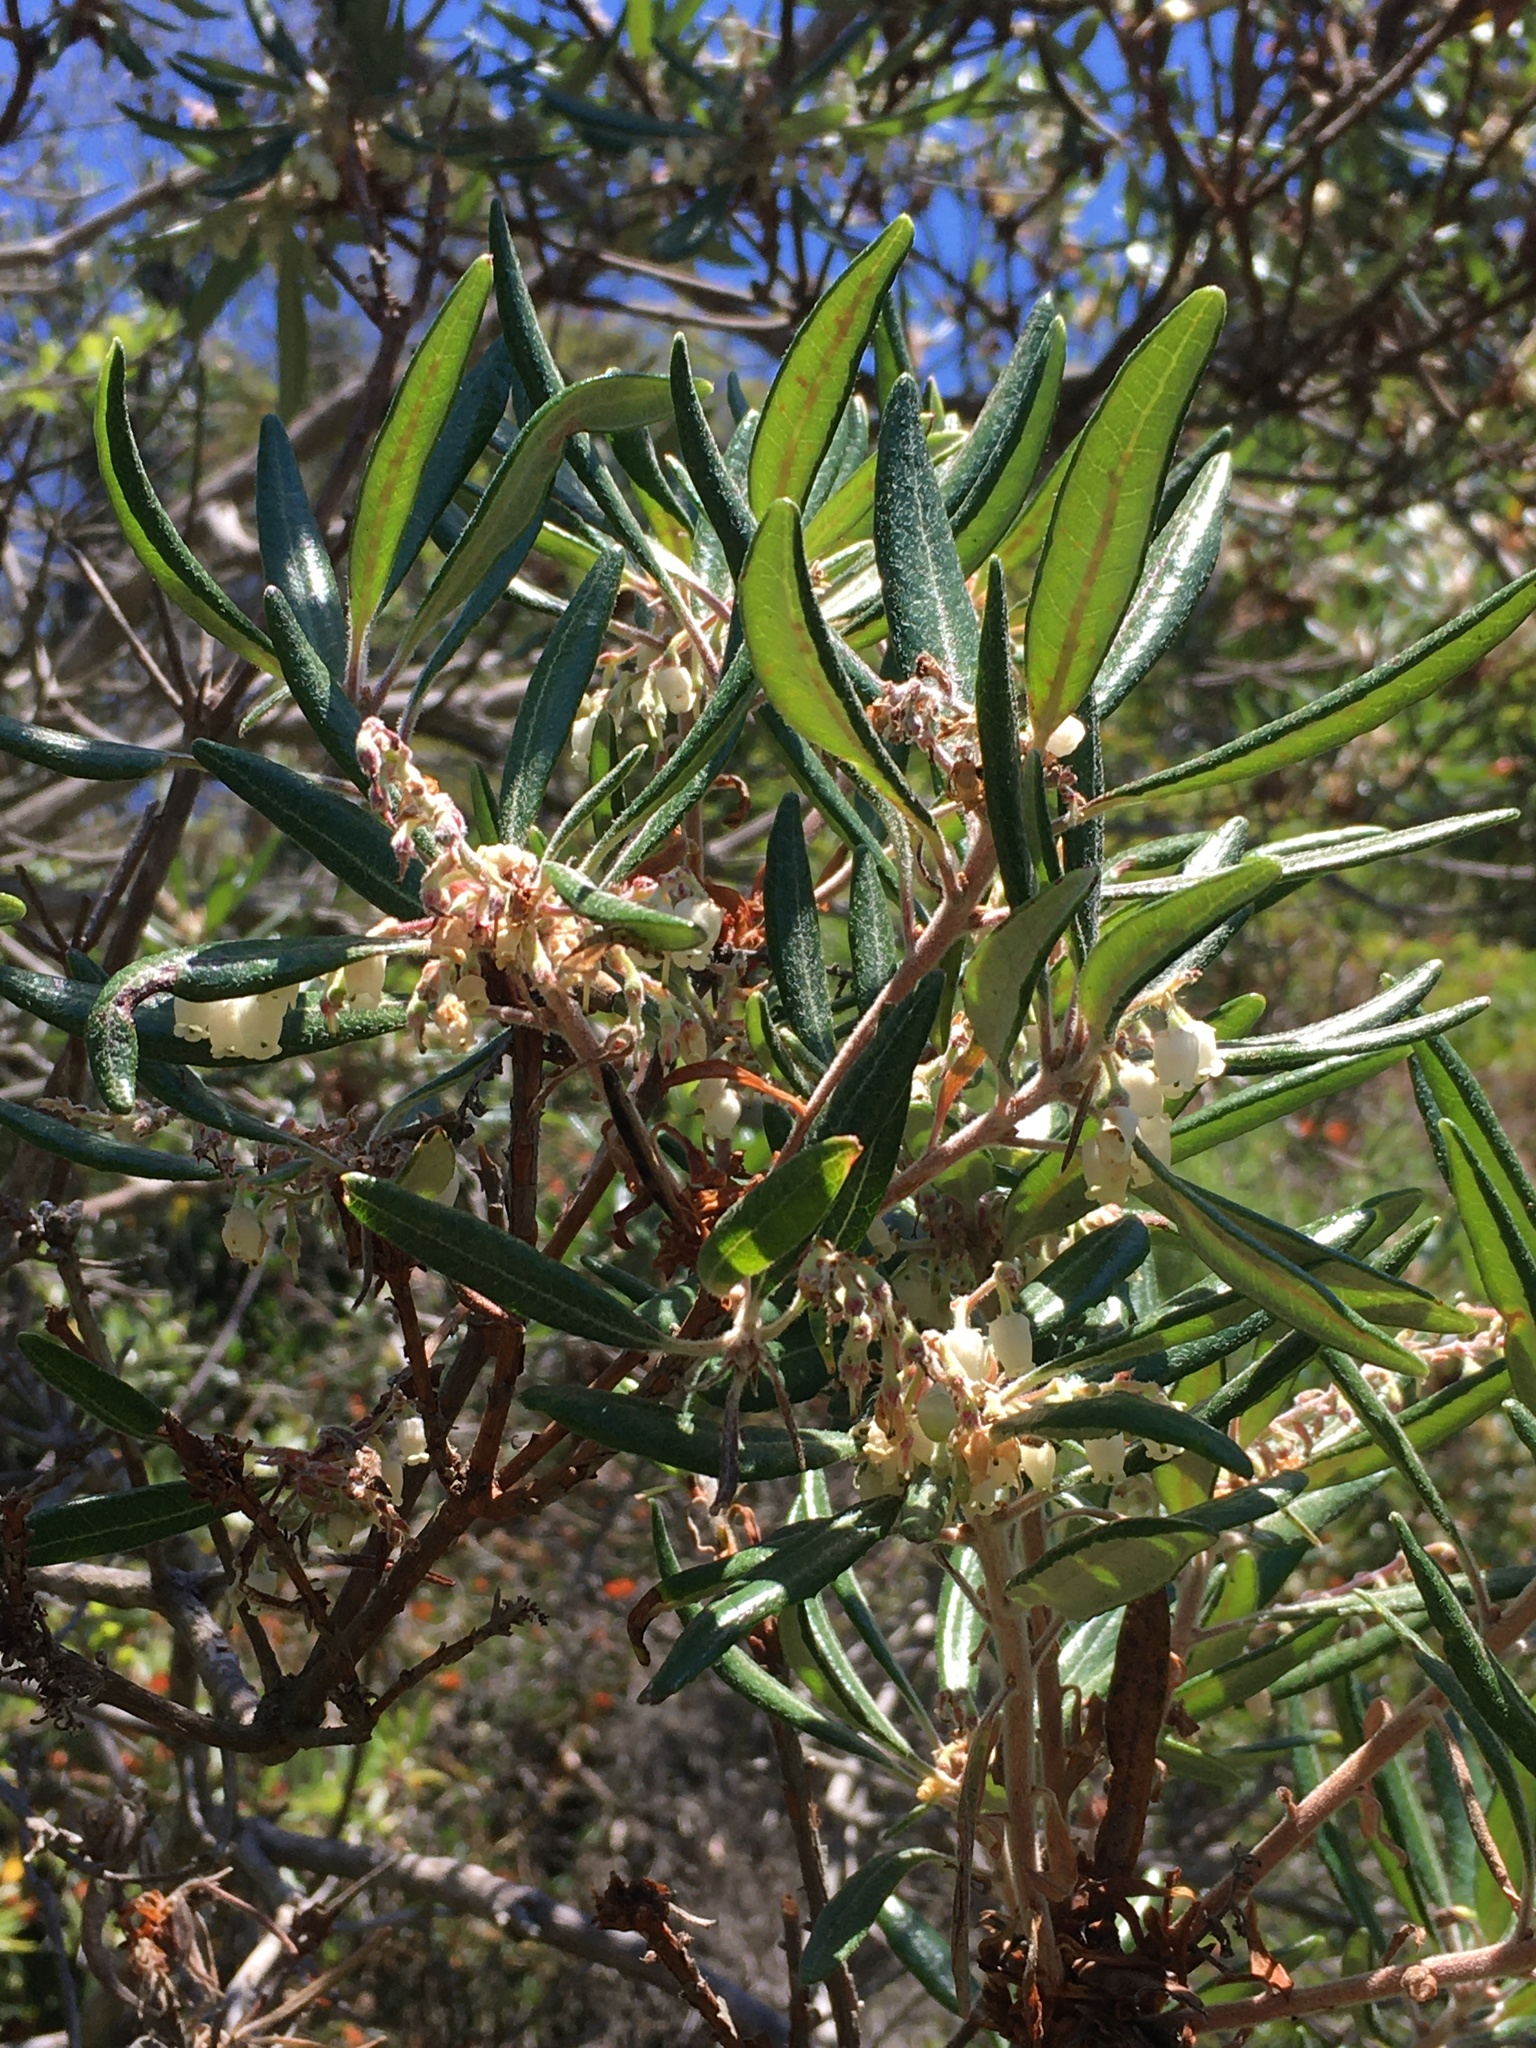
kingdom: Plantae
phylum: Tracheophyta
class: Magnoliopsida
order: Ericales
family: Ericaceae
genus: Comarostaphylis
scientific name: Comarostaphylis diversifolia
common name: Summer-holly
